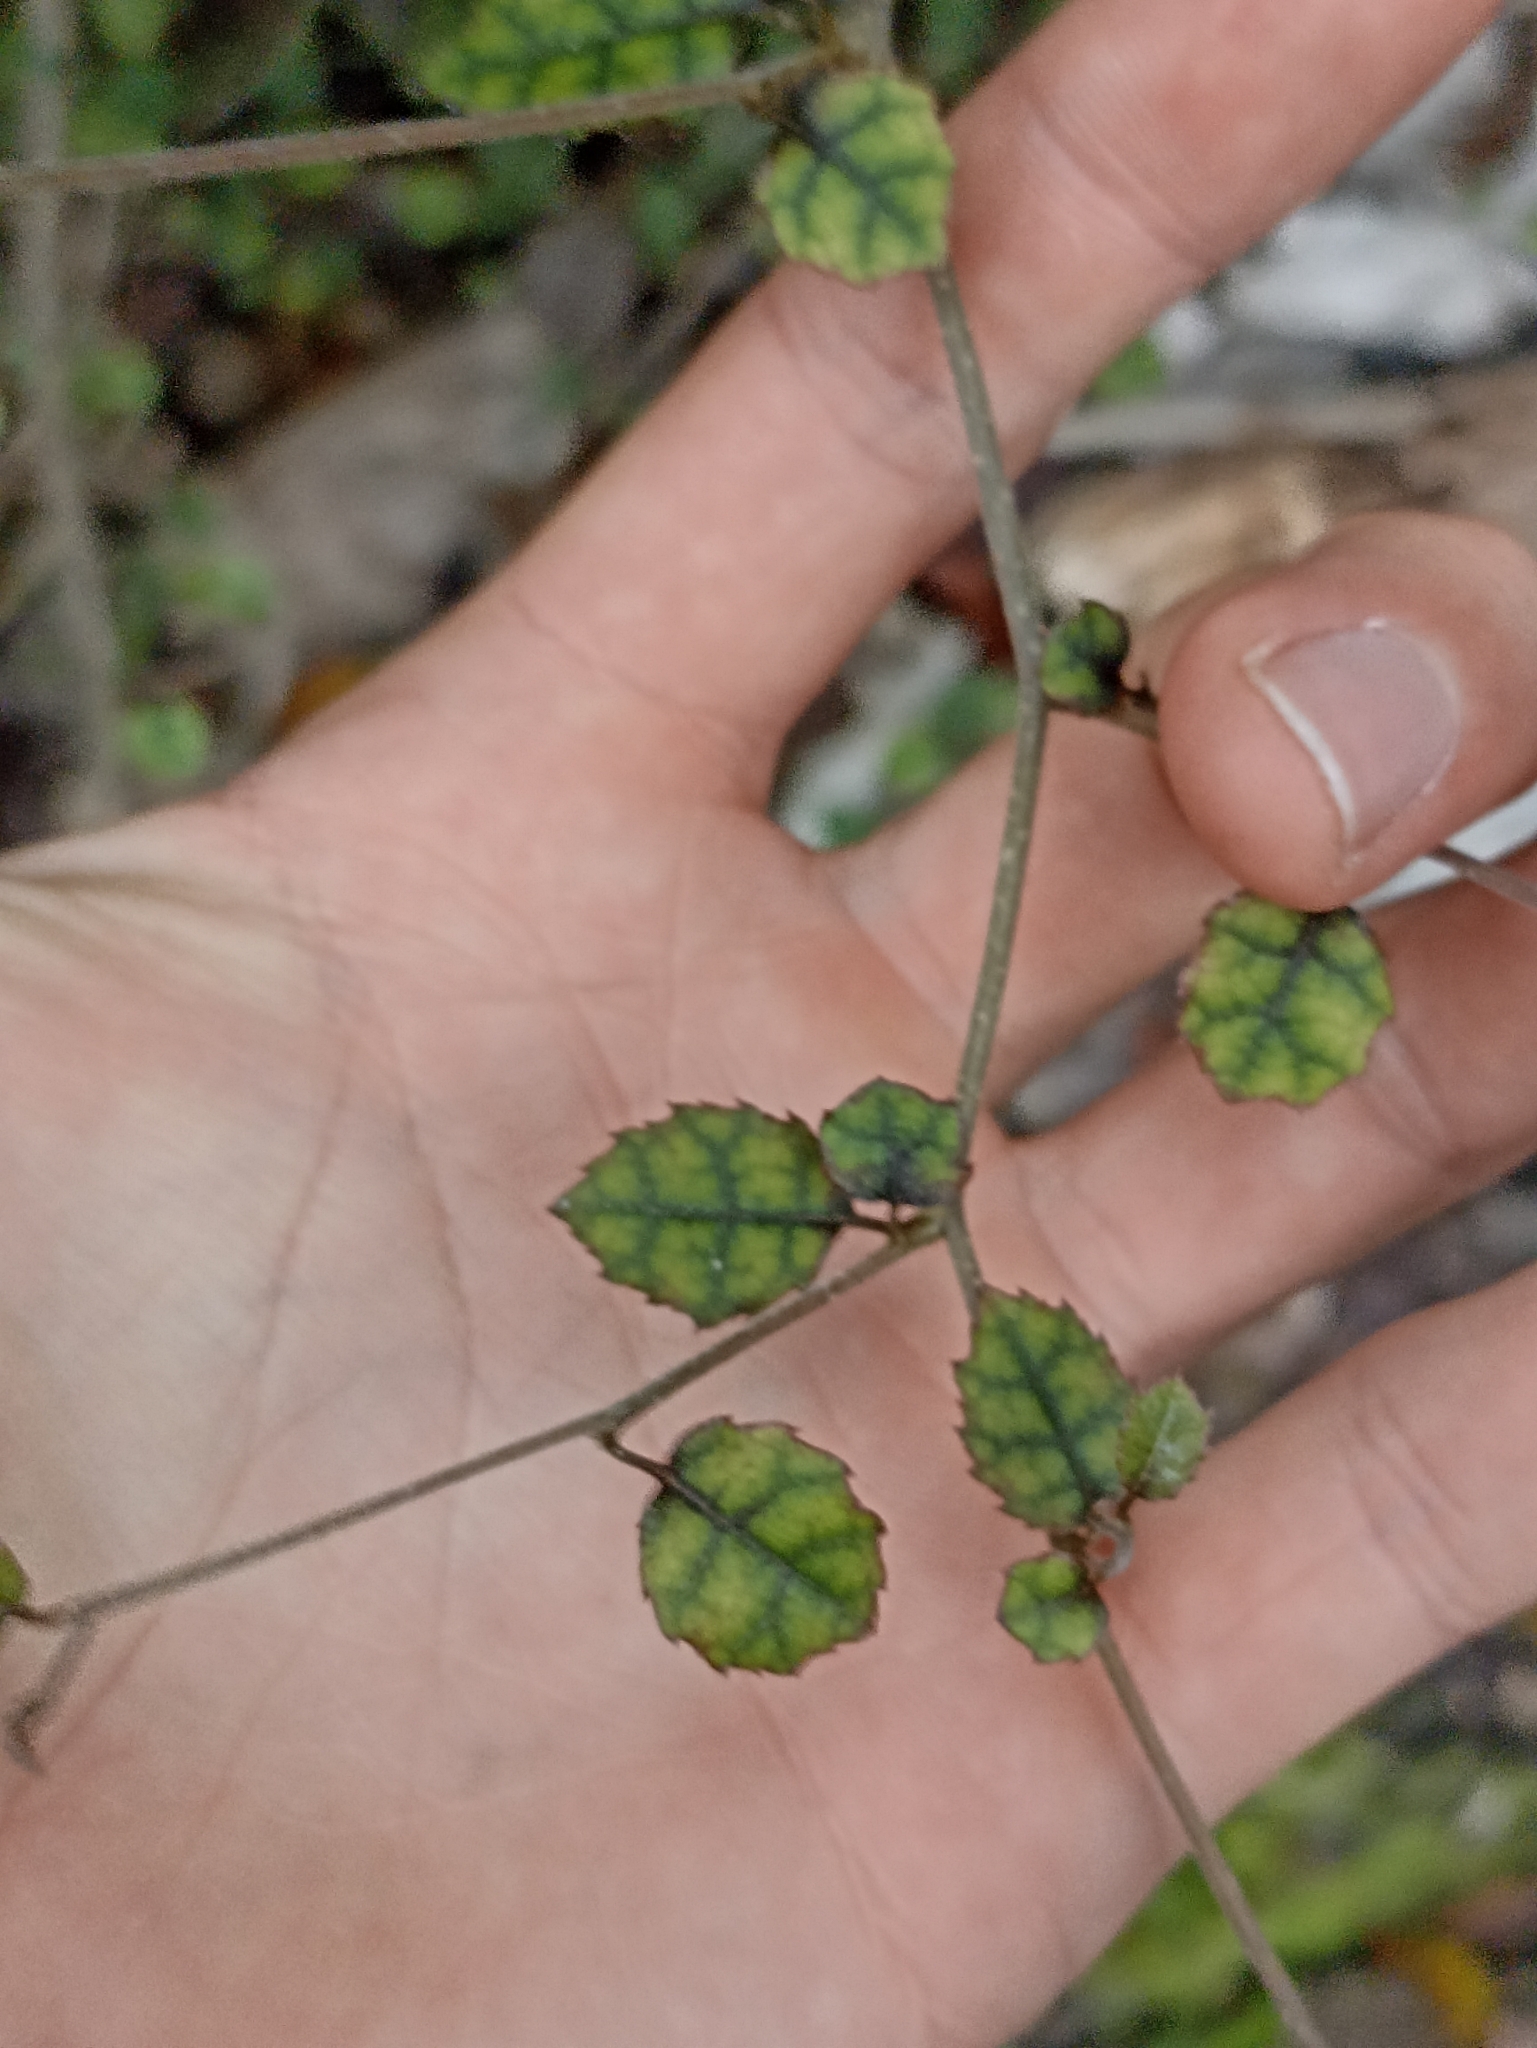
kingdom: Plantae
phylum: Tracheophyta
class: Magnoliopsida
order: Asterales
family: Rousseaceae
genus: Carpodetus
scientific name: Carpodetus serratus
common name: White mapau
